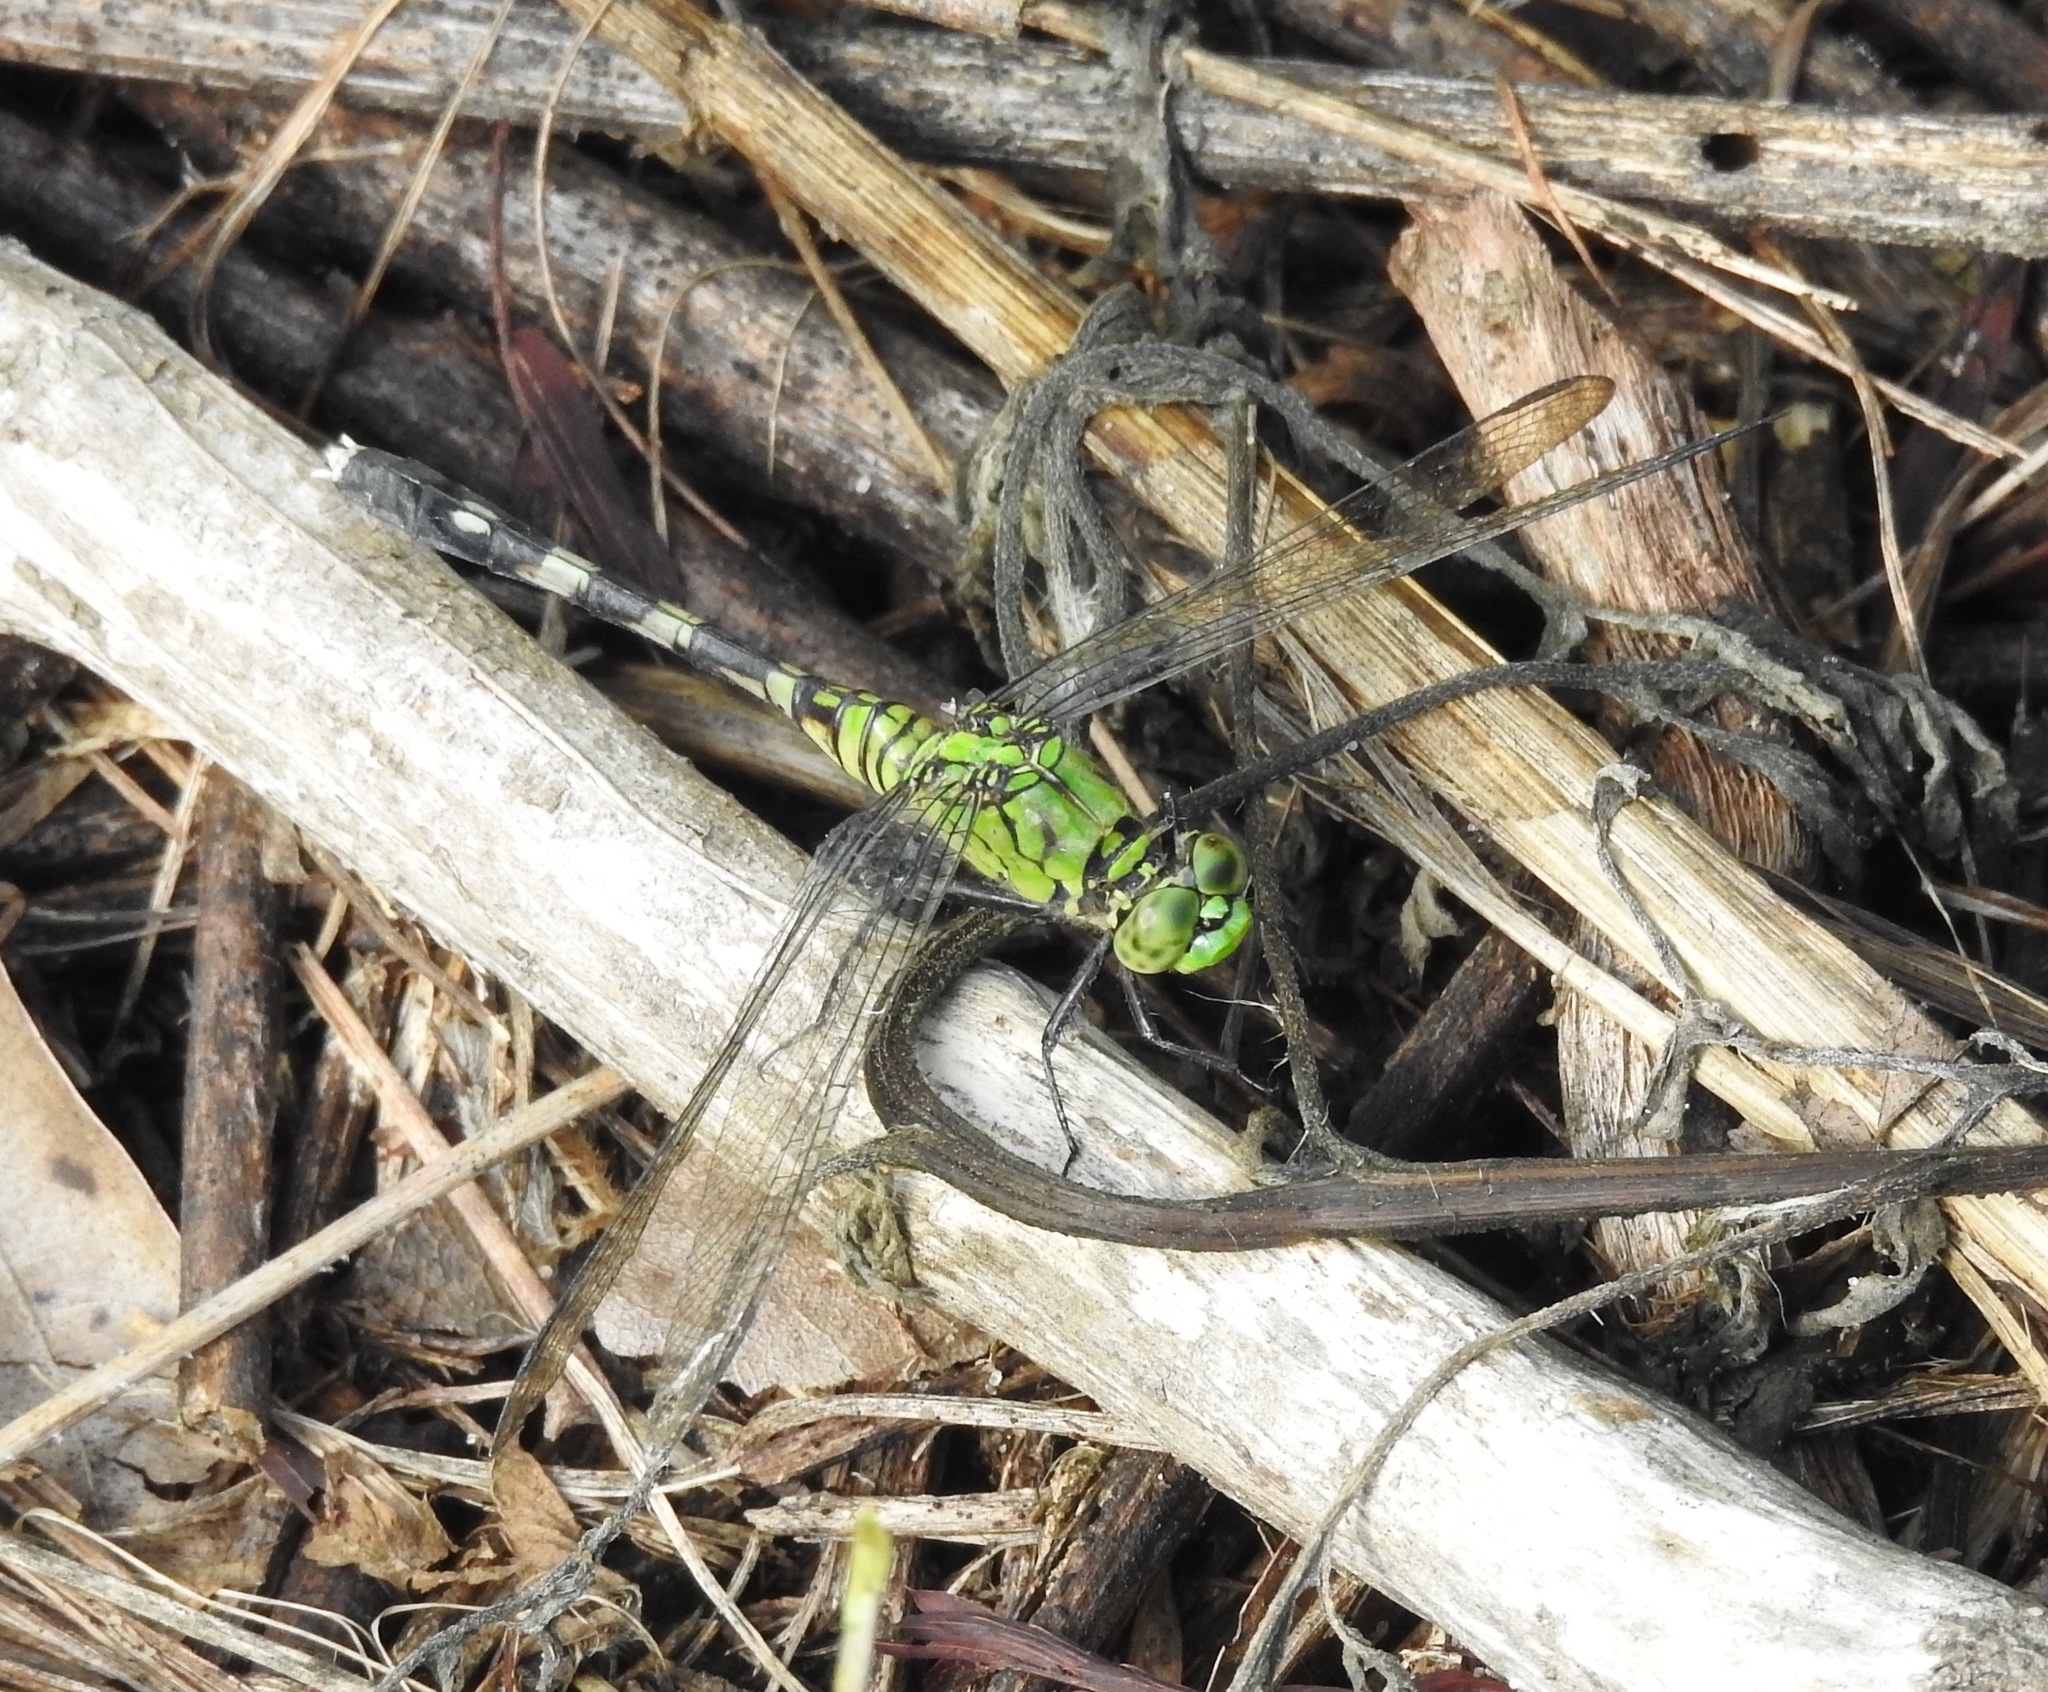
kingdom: Animalia
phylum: Arthropoda
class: Insecta
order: Odonata
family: Libellulidae
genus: Erythemis
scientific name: Erythemis simplicicollis
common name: Eastern pondhawk
